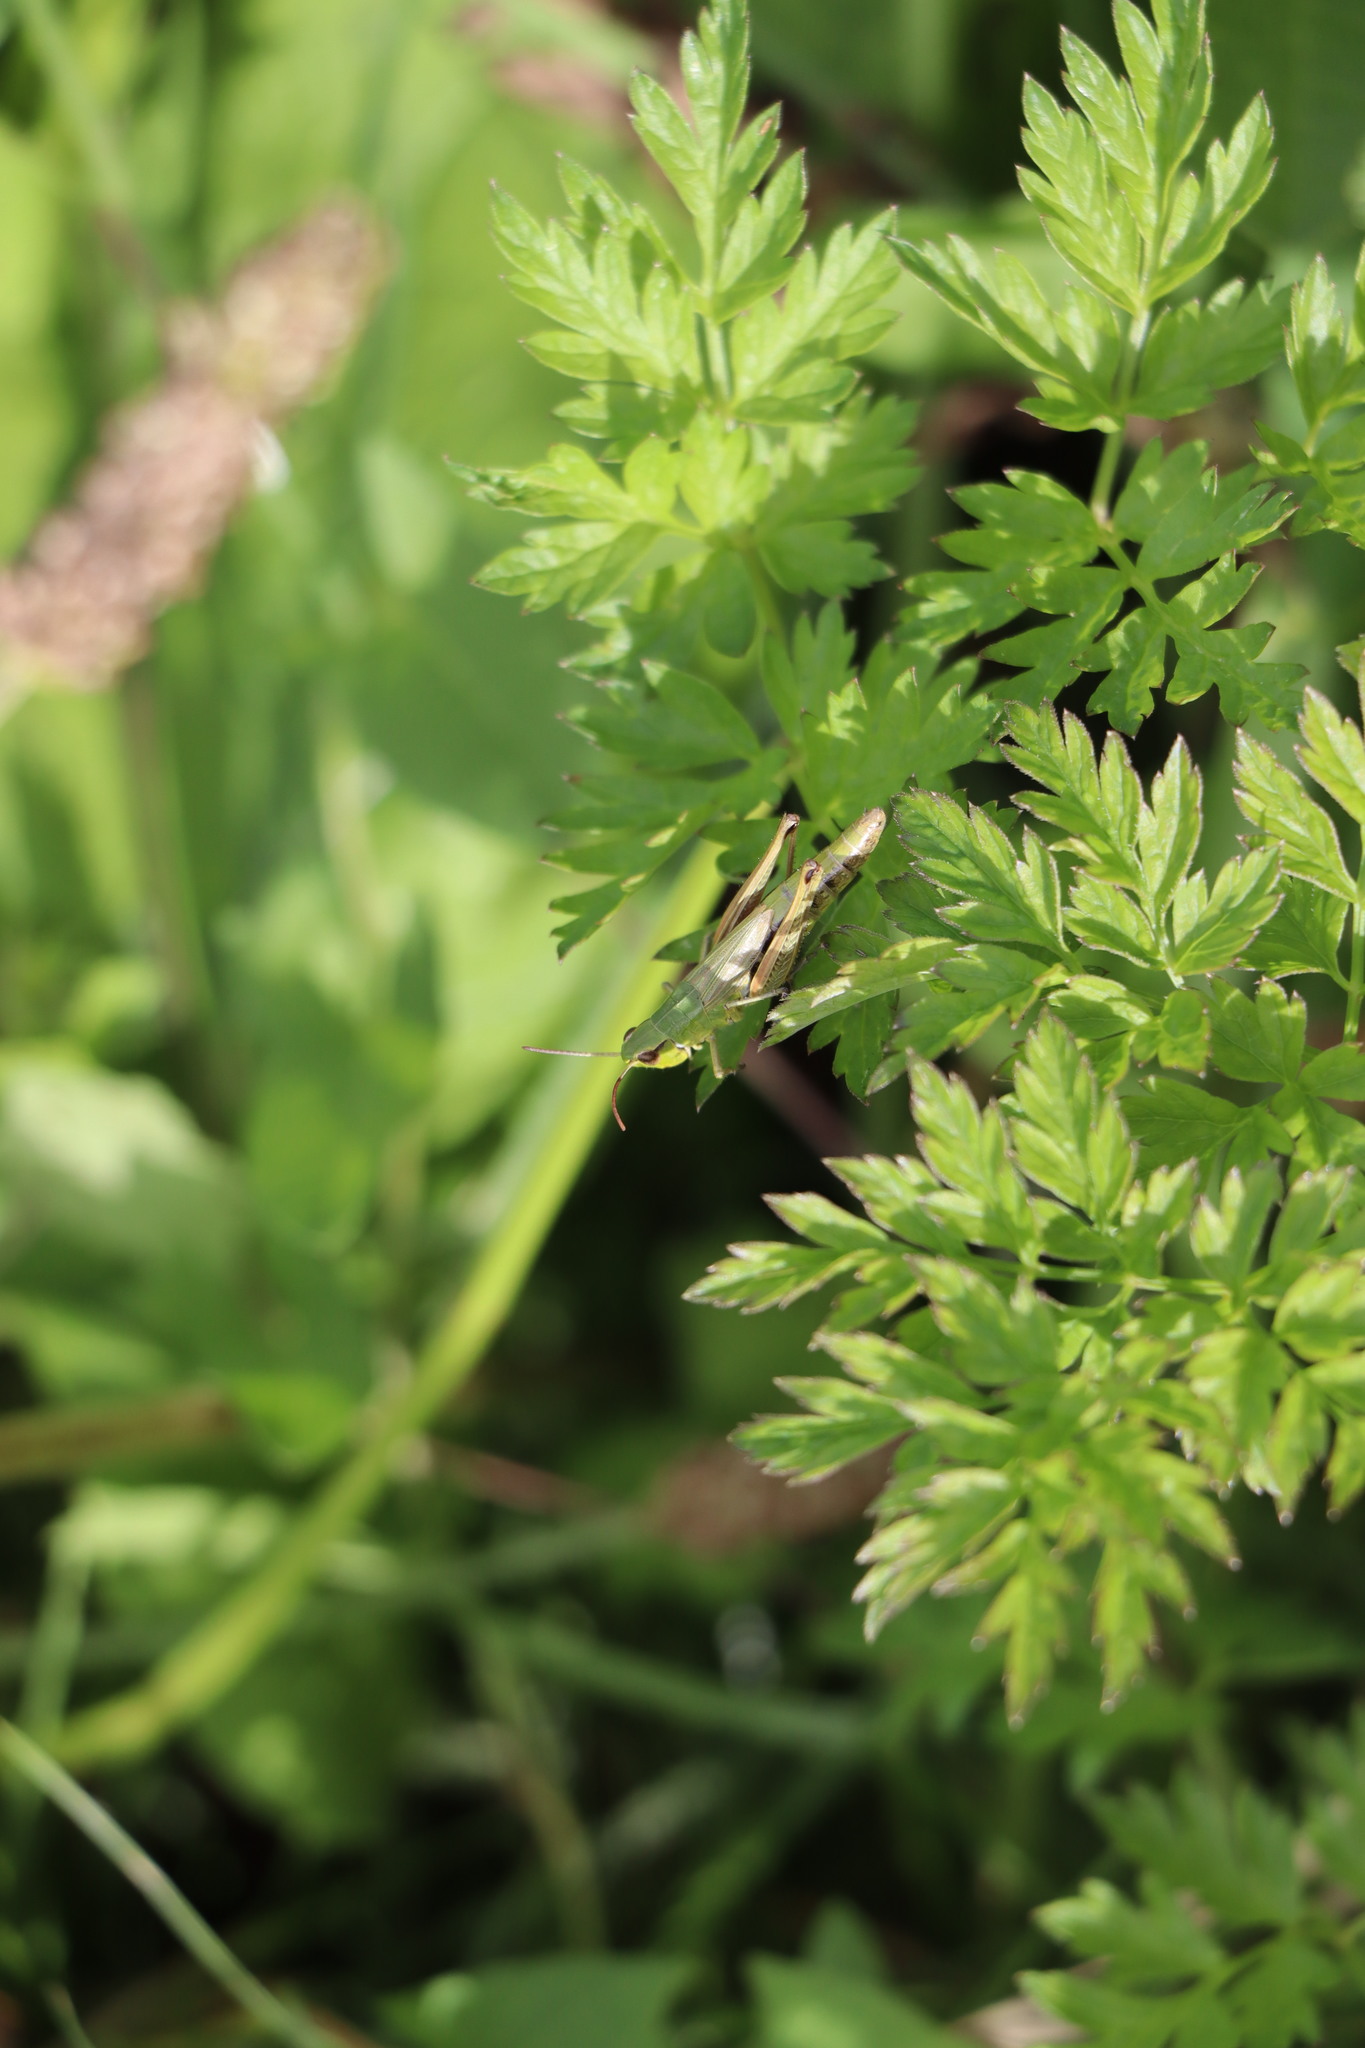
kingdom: Animalia
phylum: Arthropoda
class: Insecta
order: Orthoptera
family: Acrididae
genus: Pseudochorthippus
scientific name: Pseudochorthippus parallelus
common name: Meadow grasshopper
